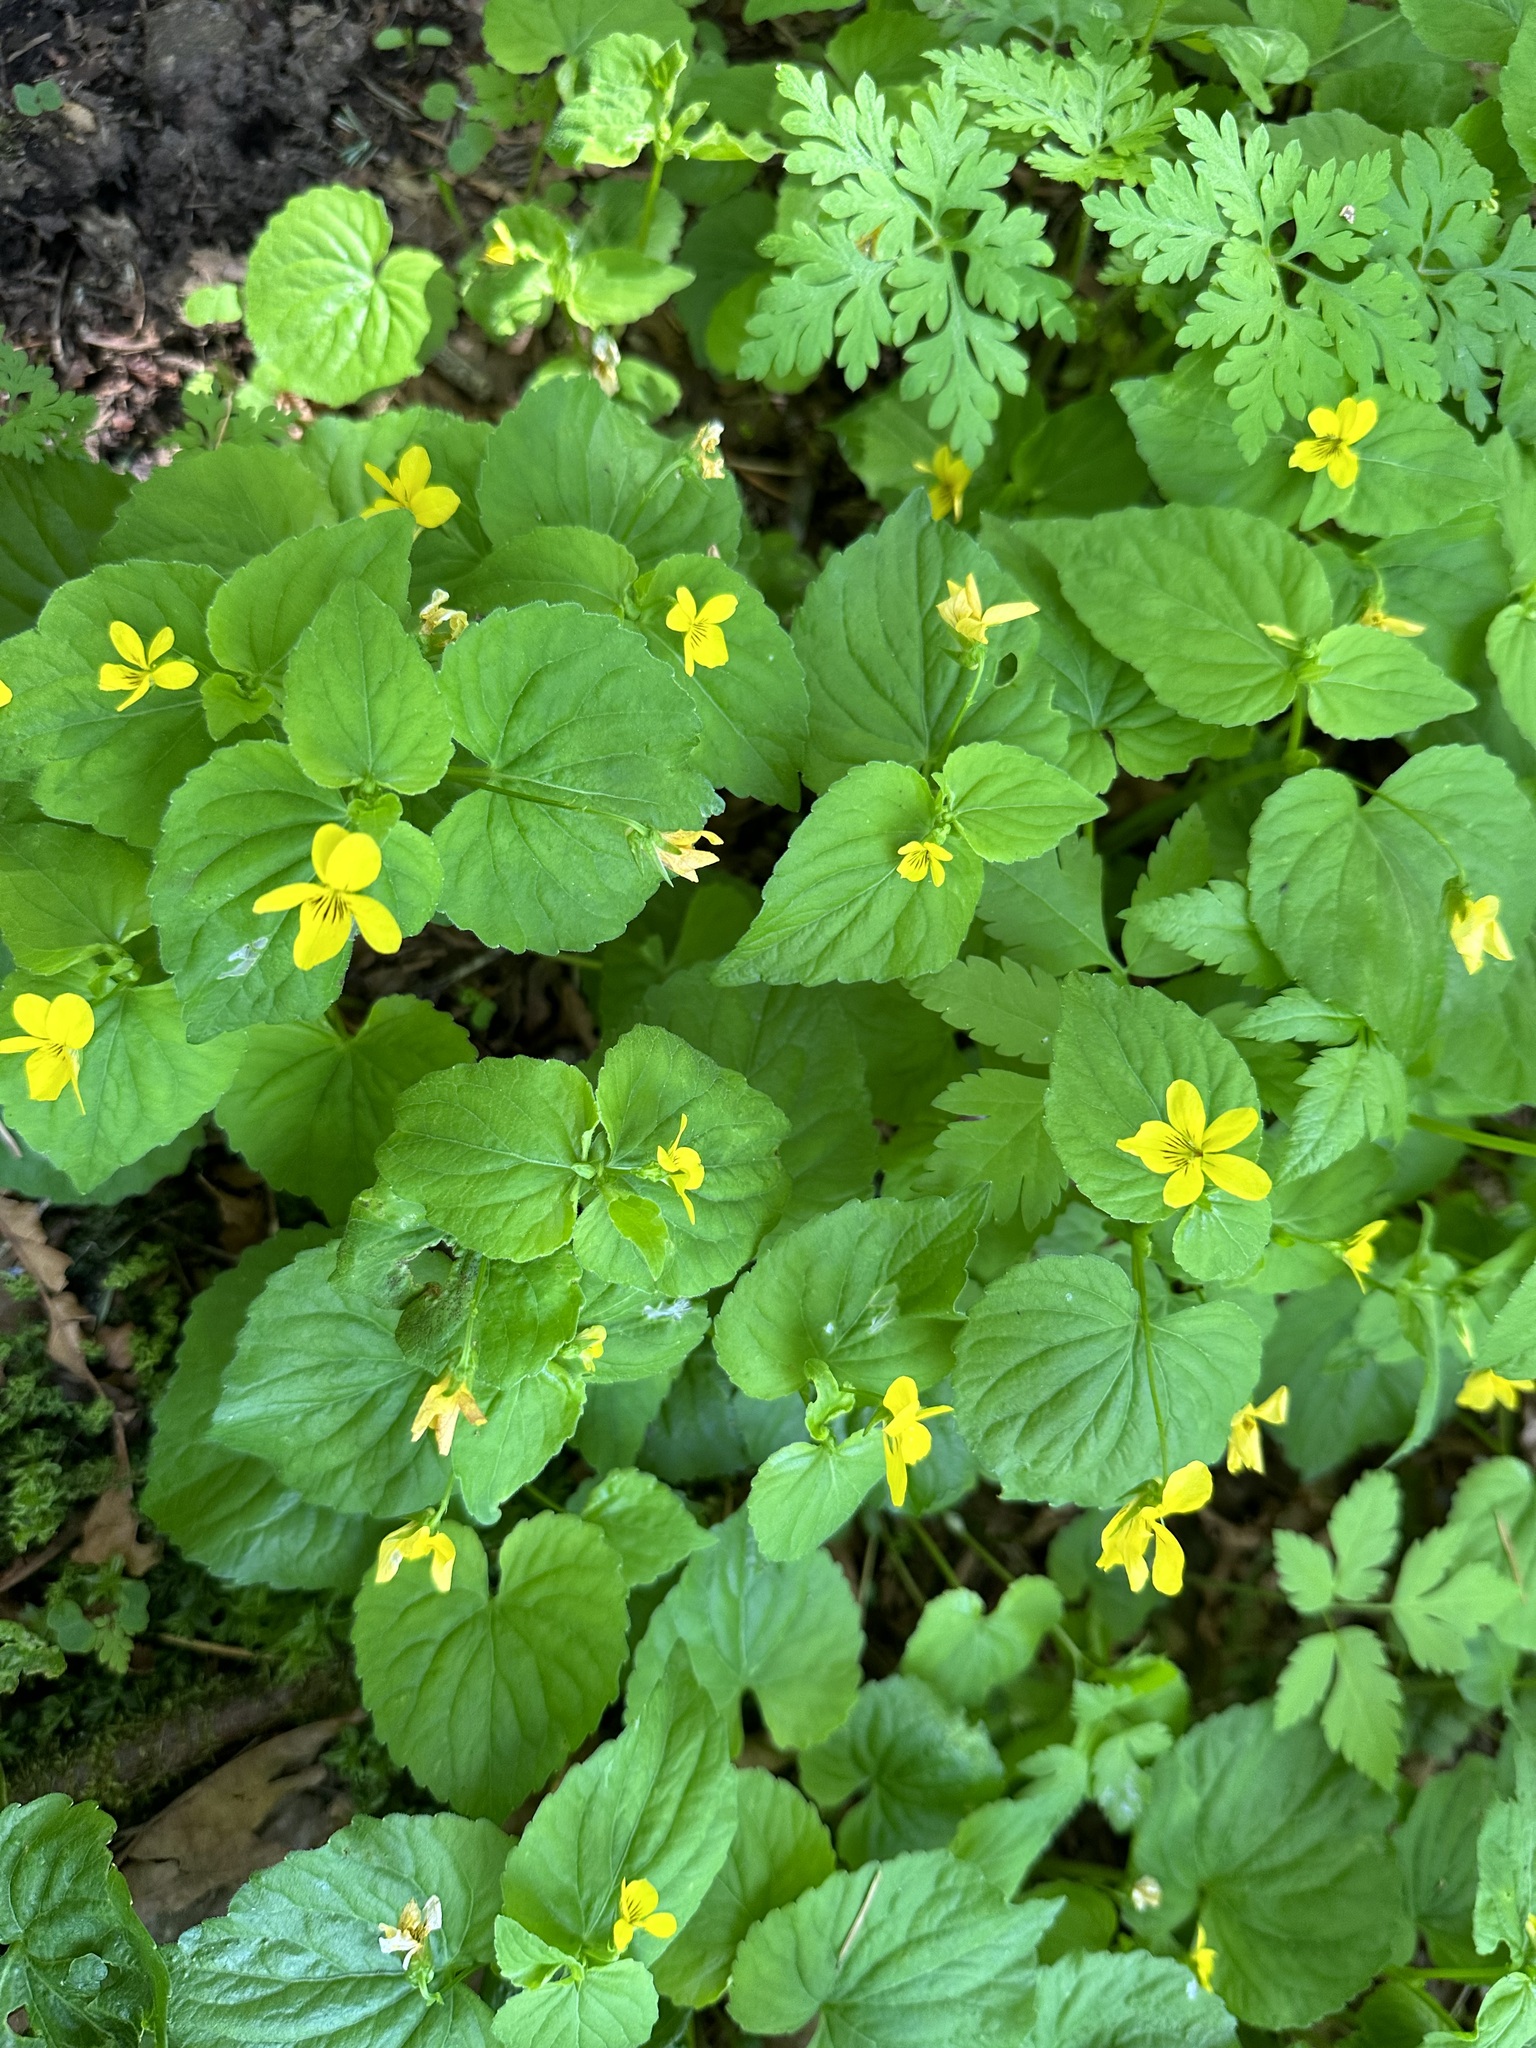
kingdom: Plantae
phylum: Tracheophyta
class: Magnoliopsida
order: Malpighiales
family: Violaceae
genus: Viola
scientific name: Viola glabella
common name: Stream violet
